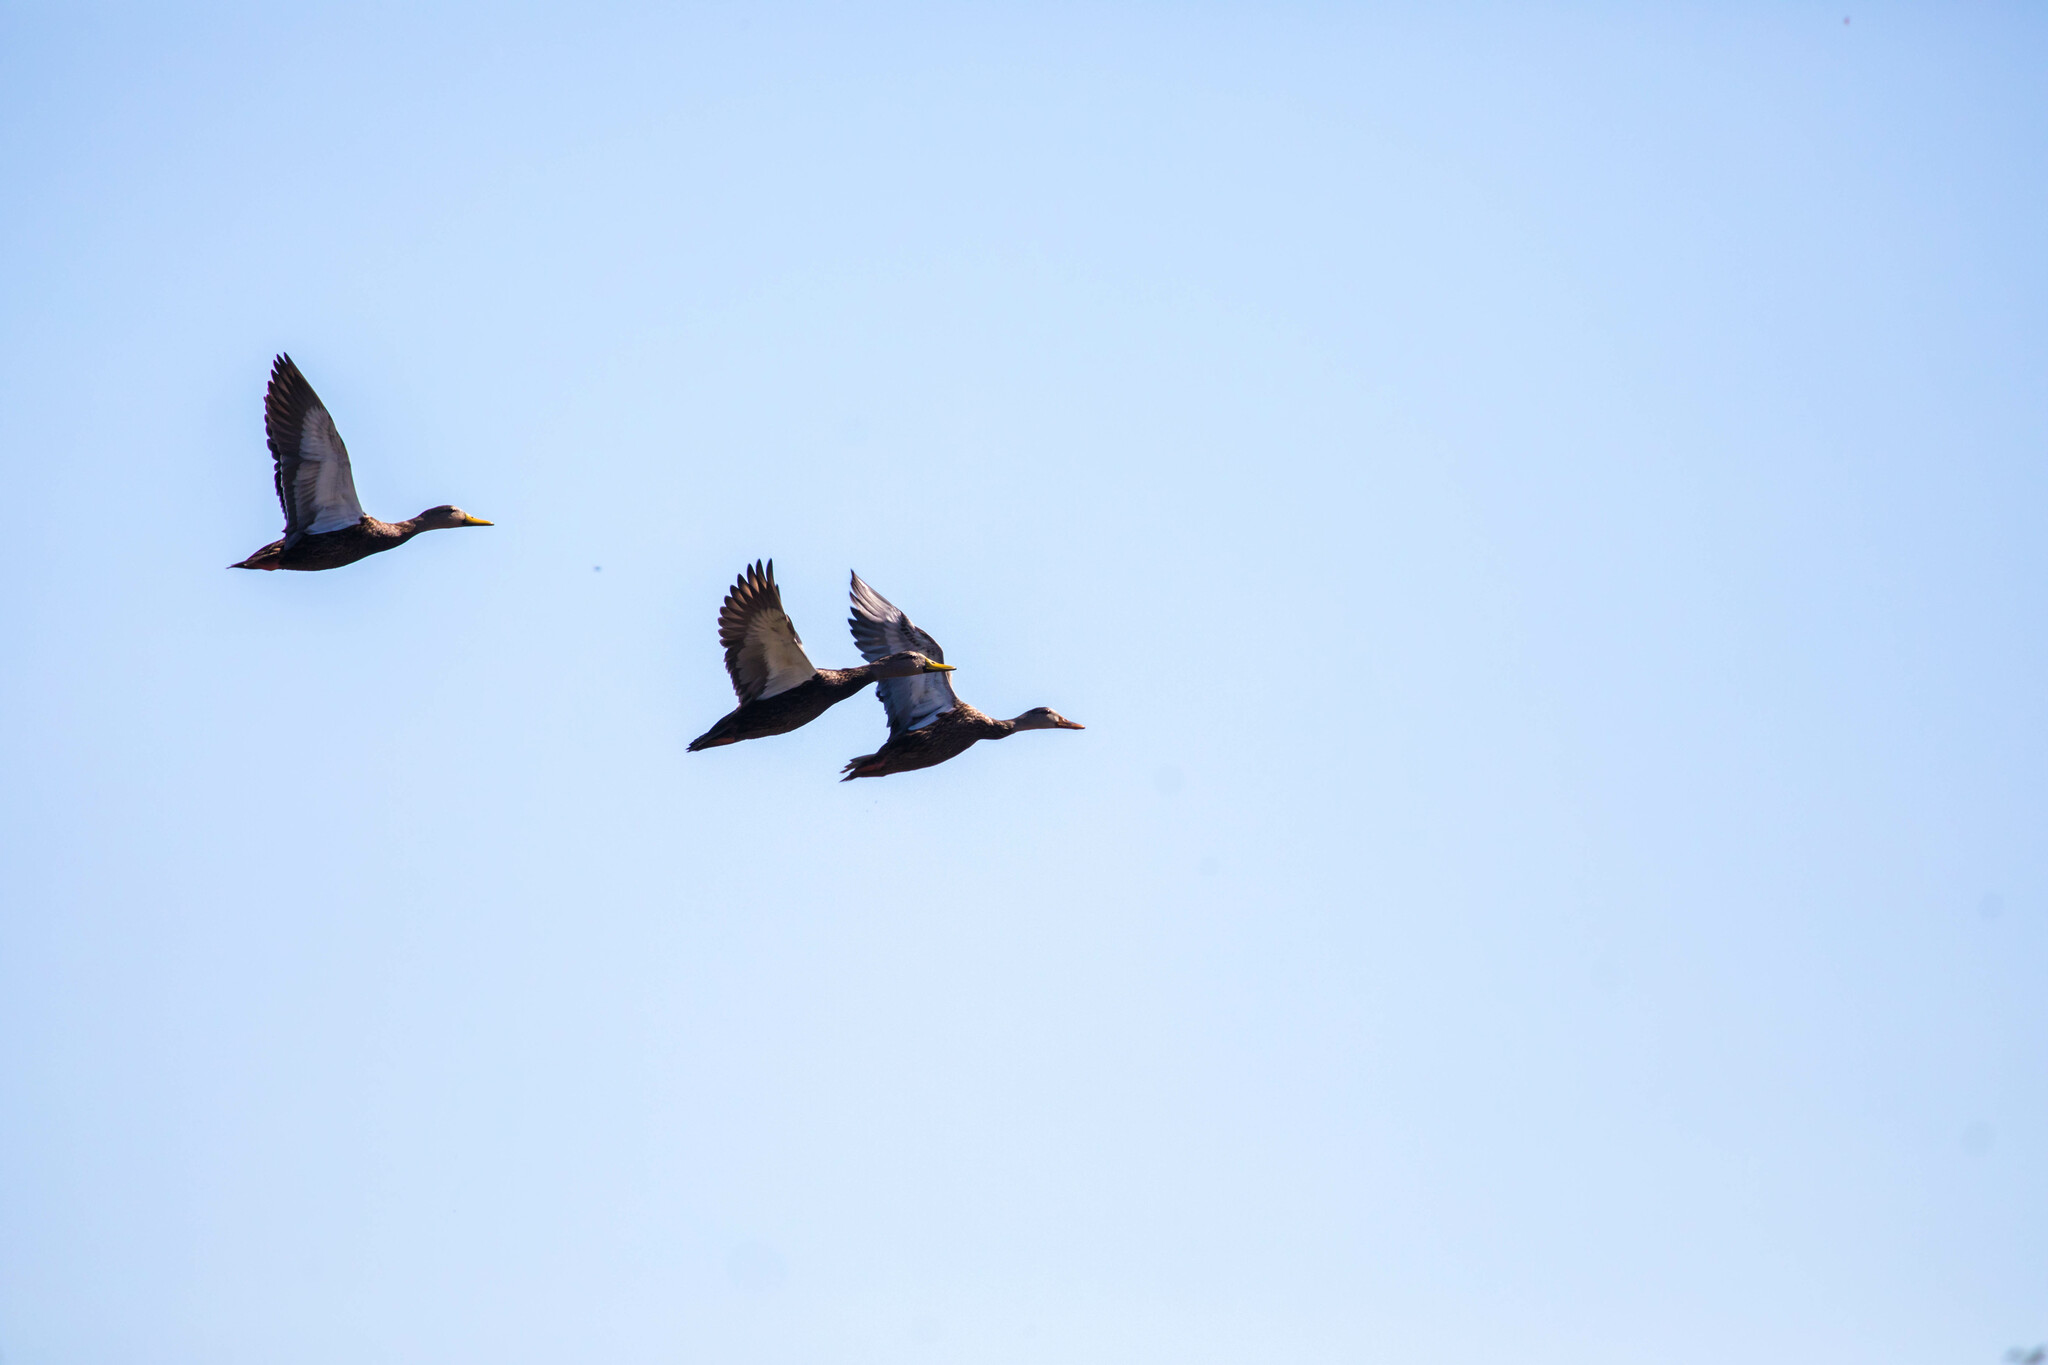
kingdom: Animalia
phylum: Chordata
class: Aves
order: Anseriformes
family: Anatidae
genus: Anas
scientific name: Anas fulvigula
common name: Mottled duck
